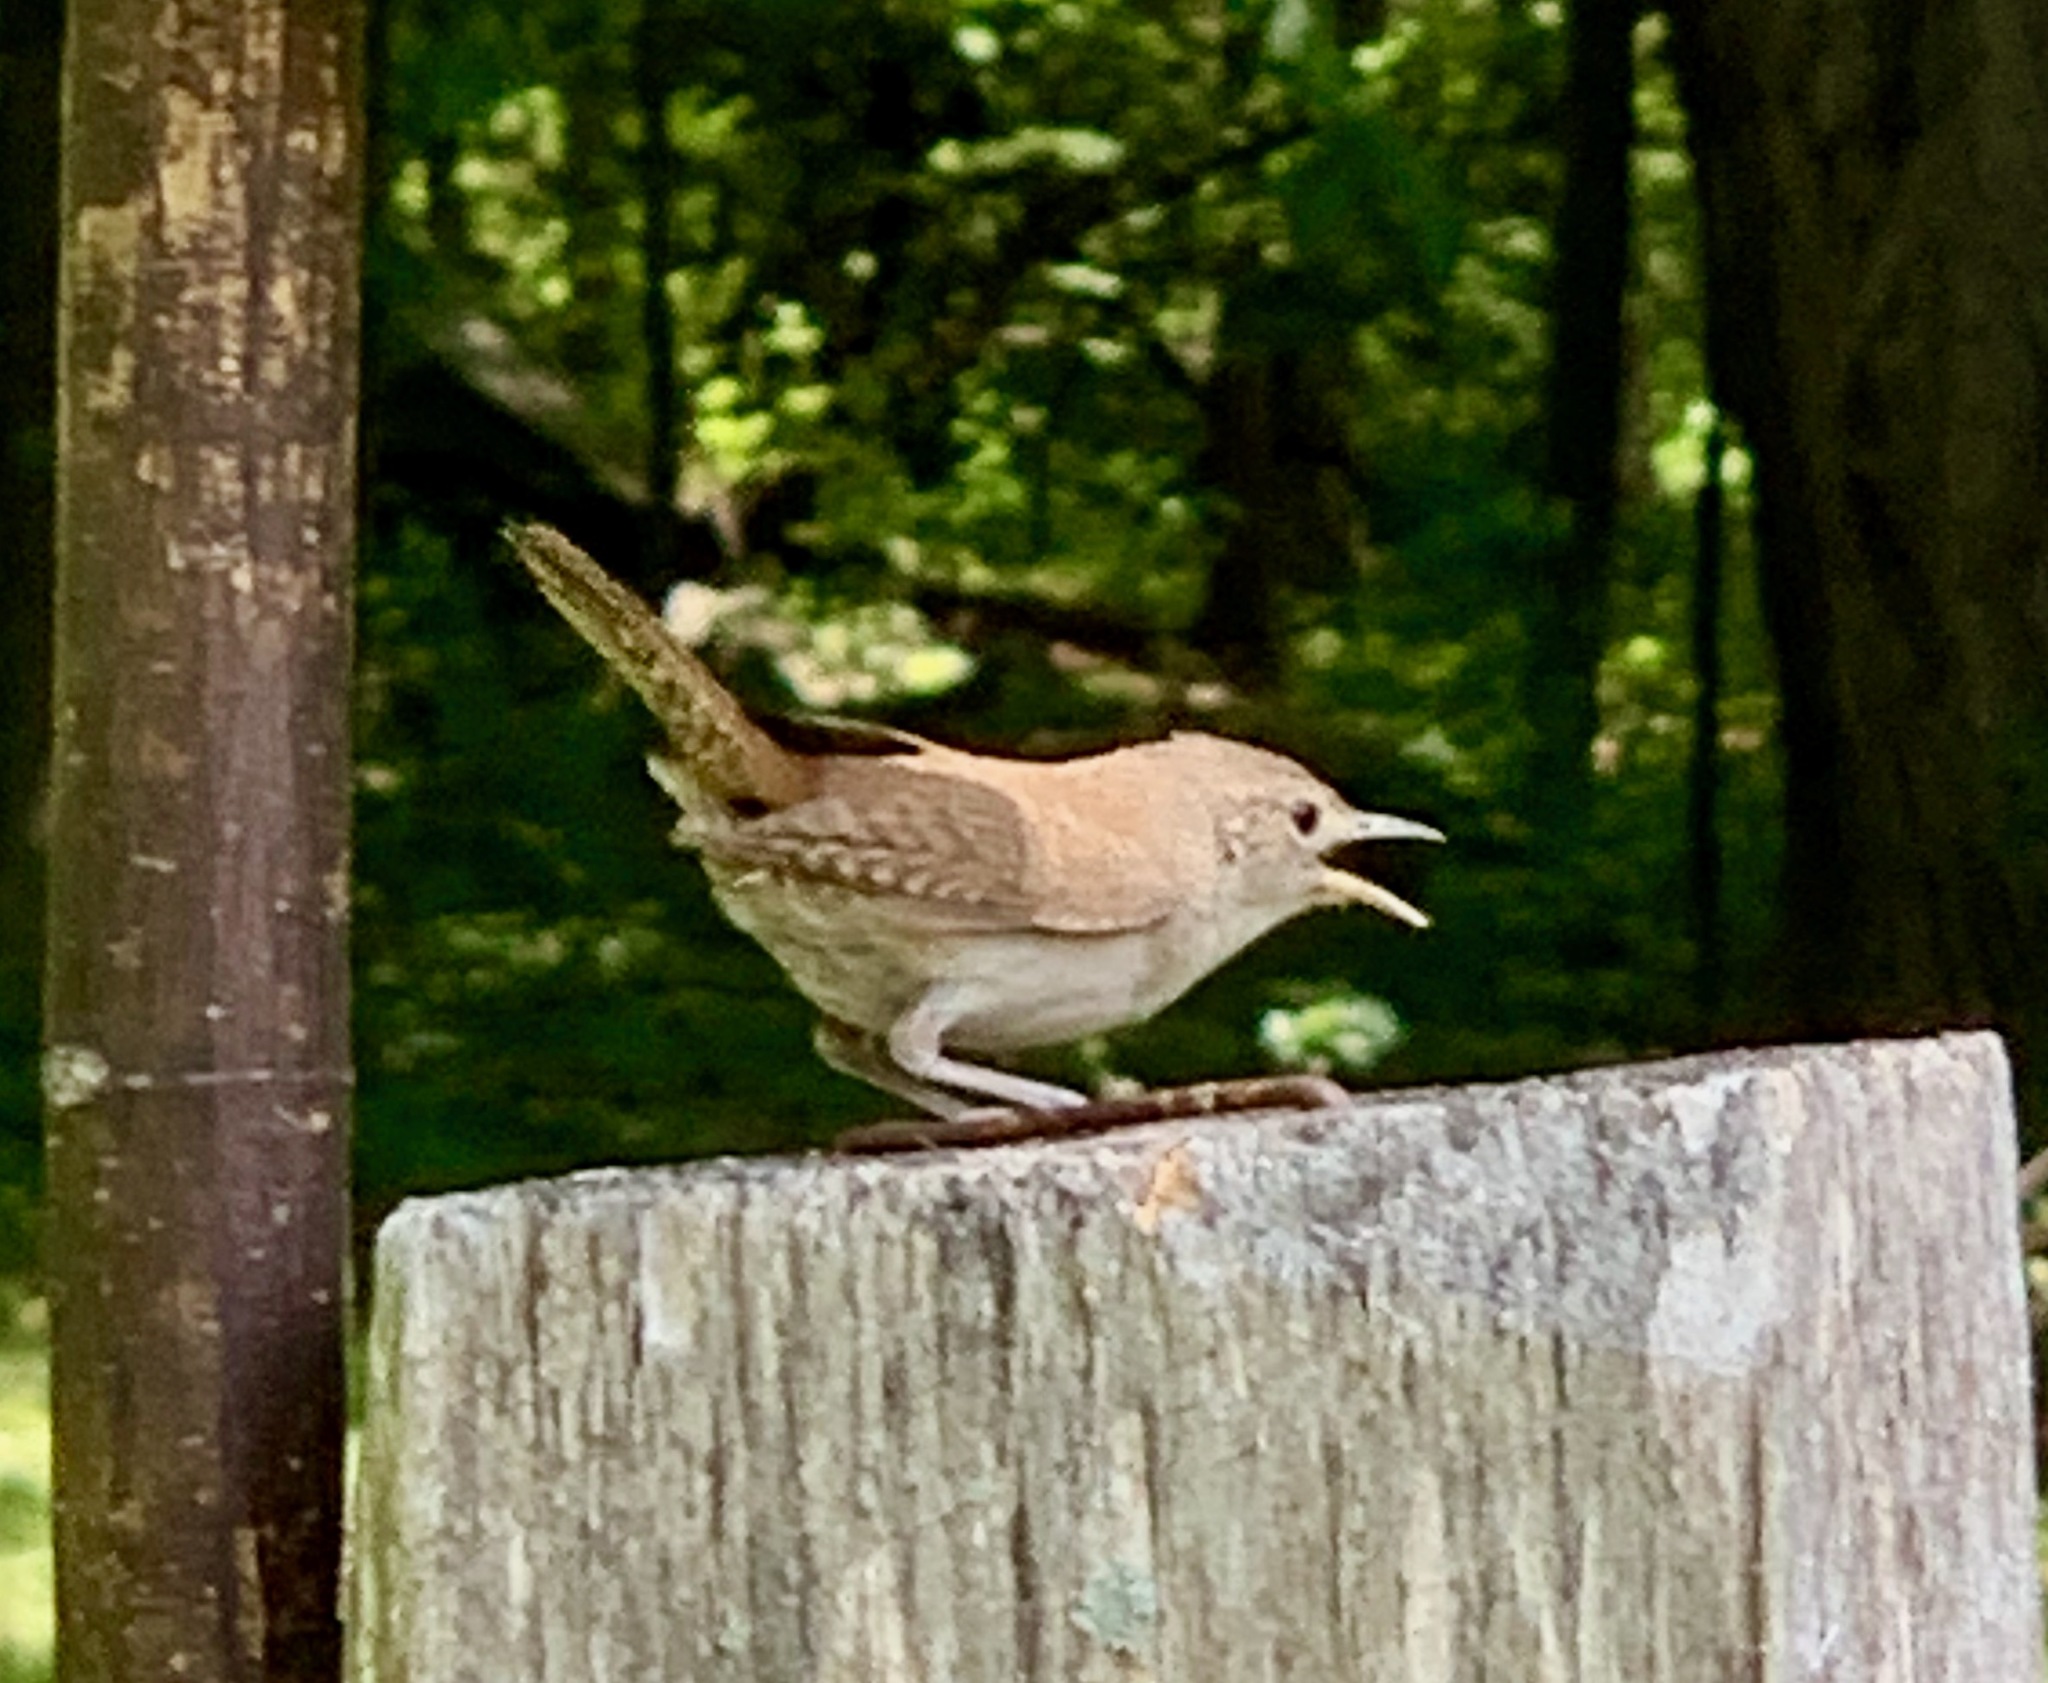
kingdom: Animalia
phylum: Chordata
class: Aves
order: Passeriformes
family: Troglodytidae
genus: Troglodytes
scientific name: Troglodytes aedon
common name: House wren
